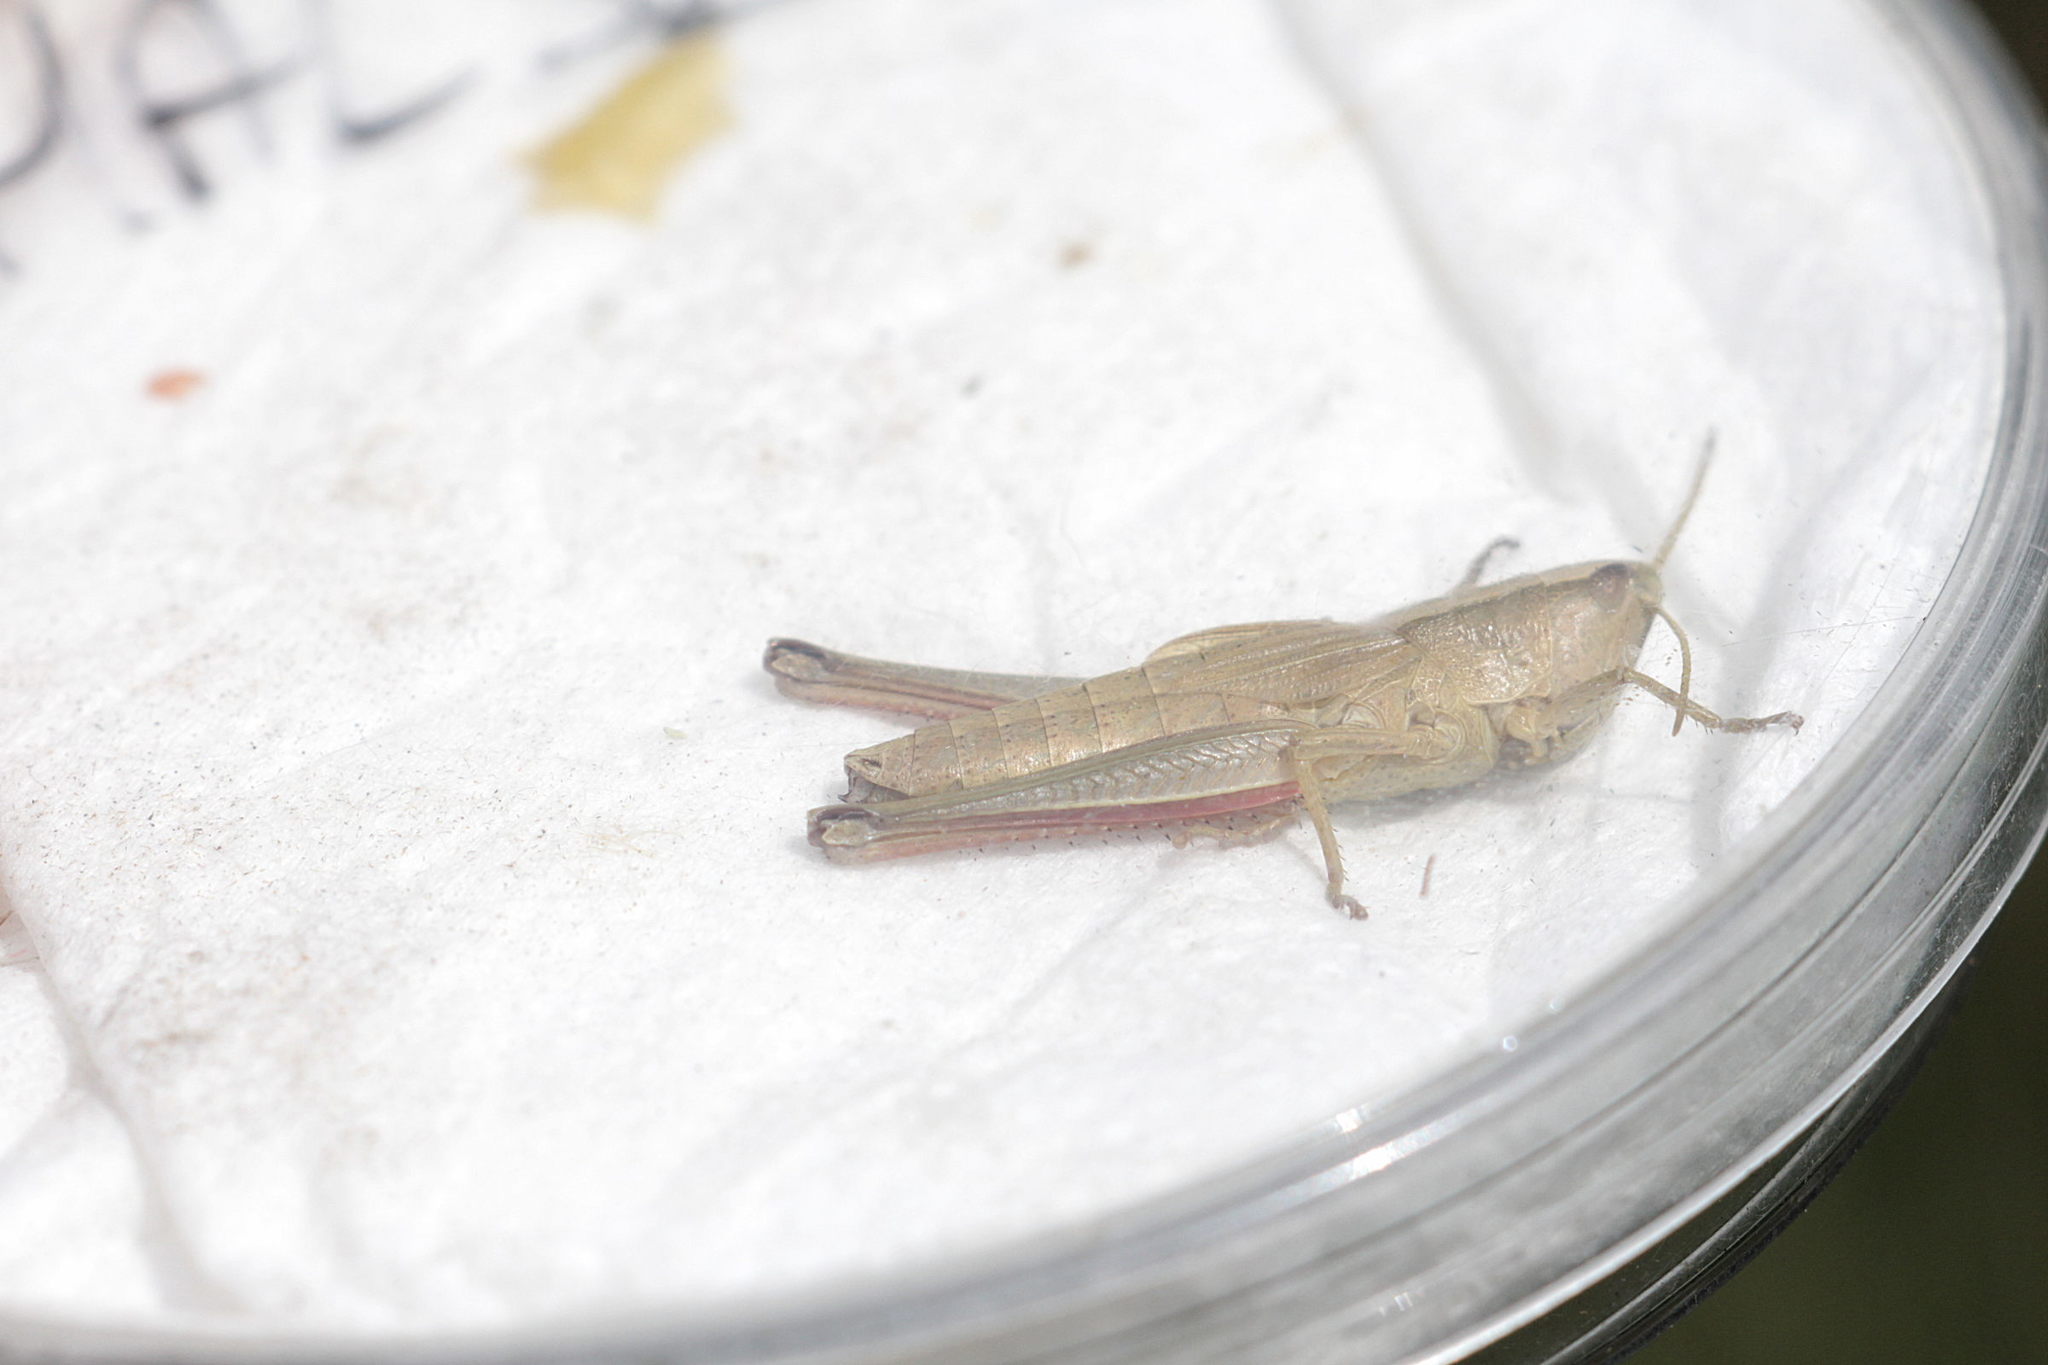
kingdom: Animalia
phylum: Arthropoda
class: Insecta
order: Orthoptera
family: Acrididae
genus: Chrysochraon
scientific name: Chrysochraon dispar
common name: Large gold grasshopper
